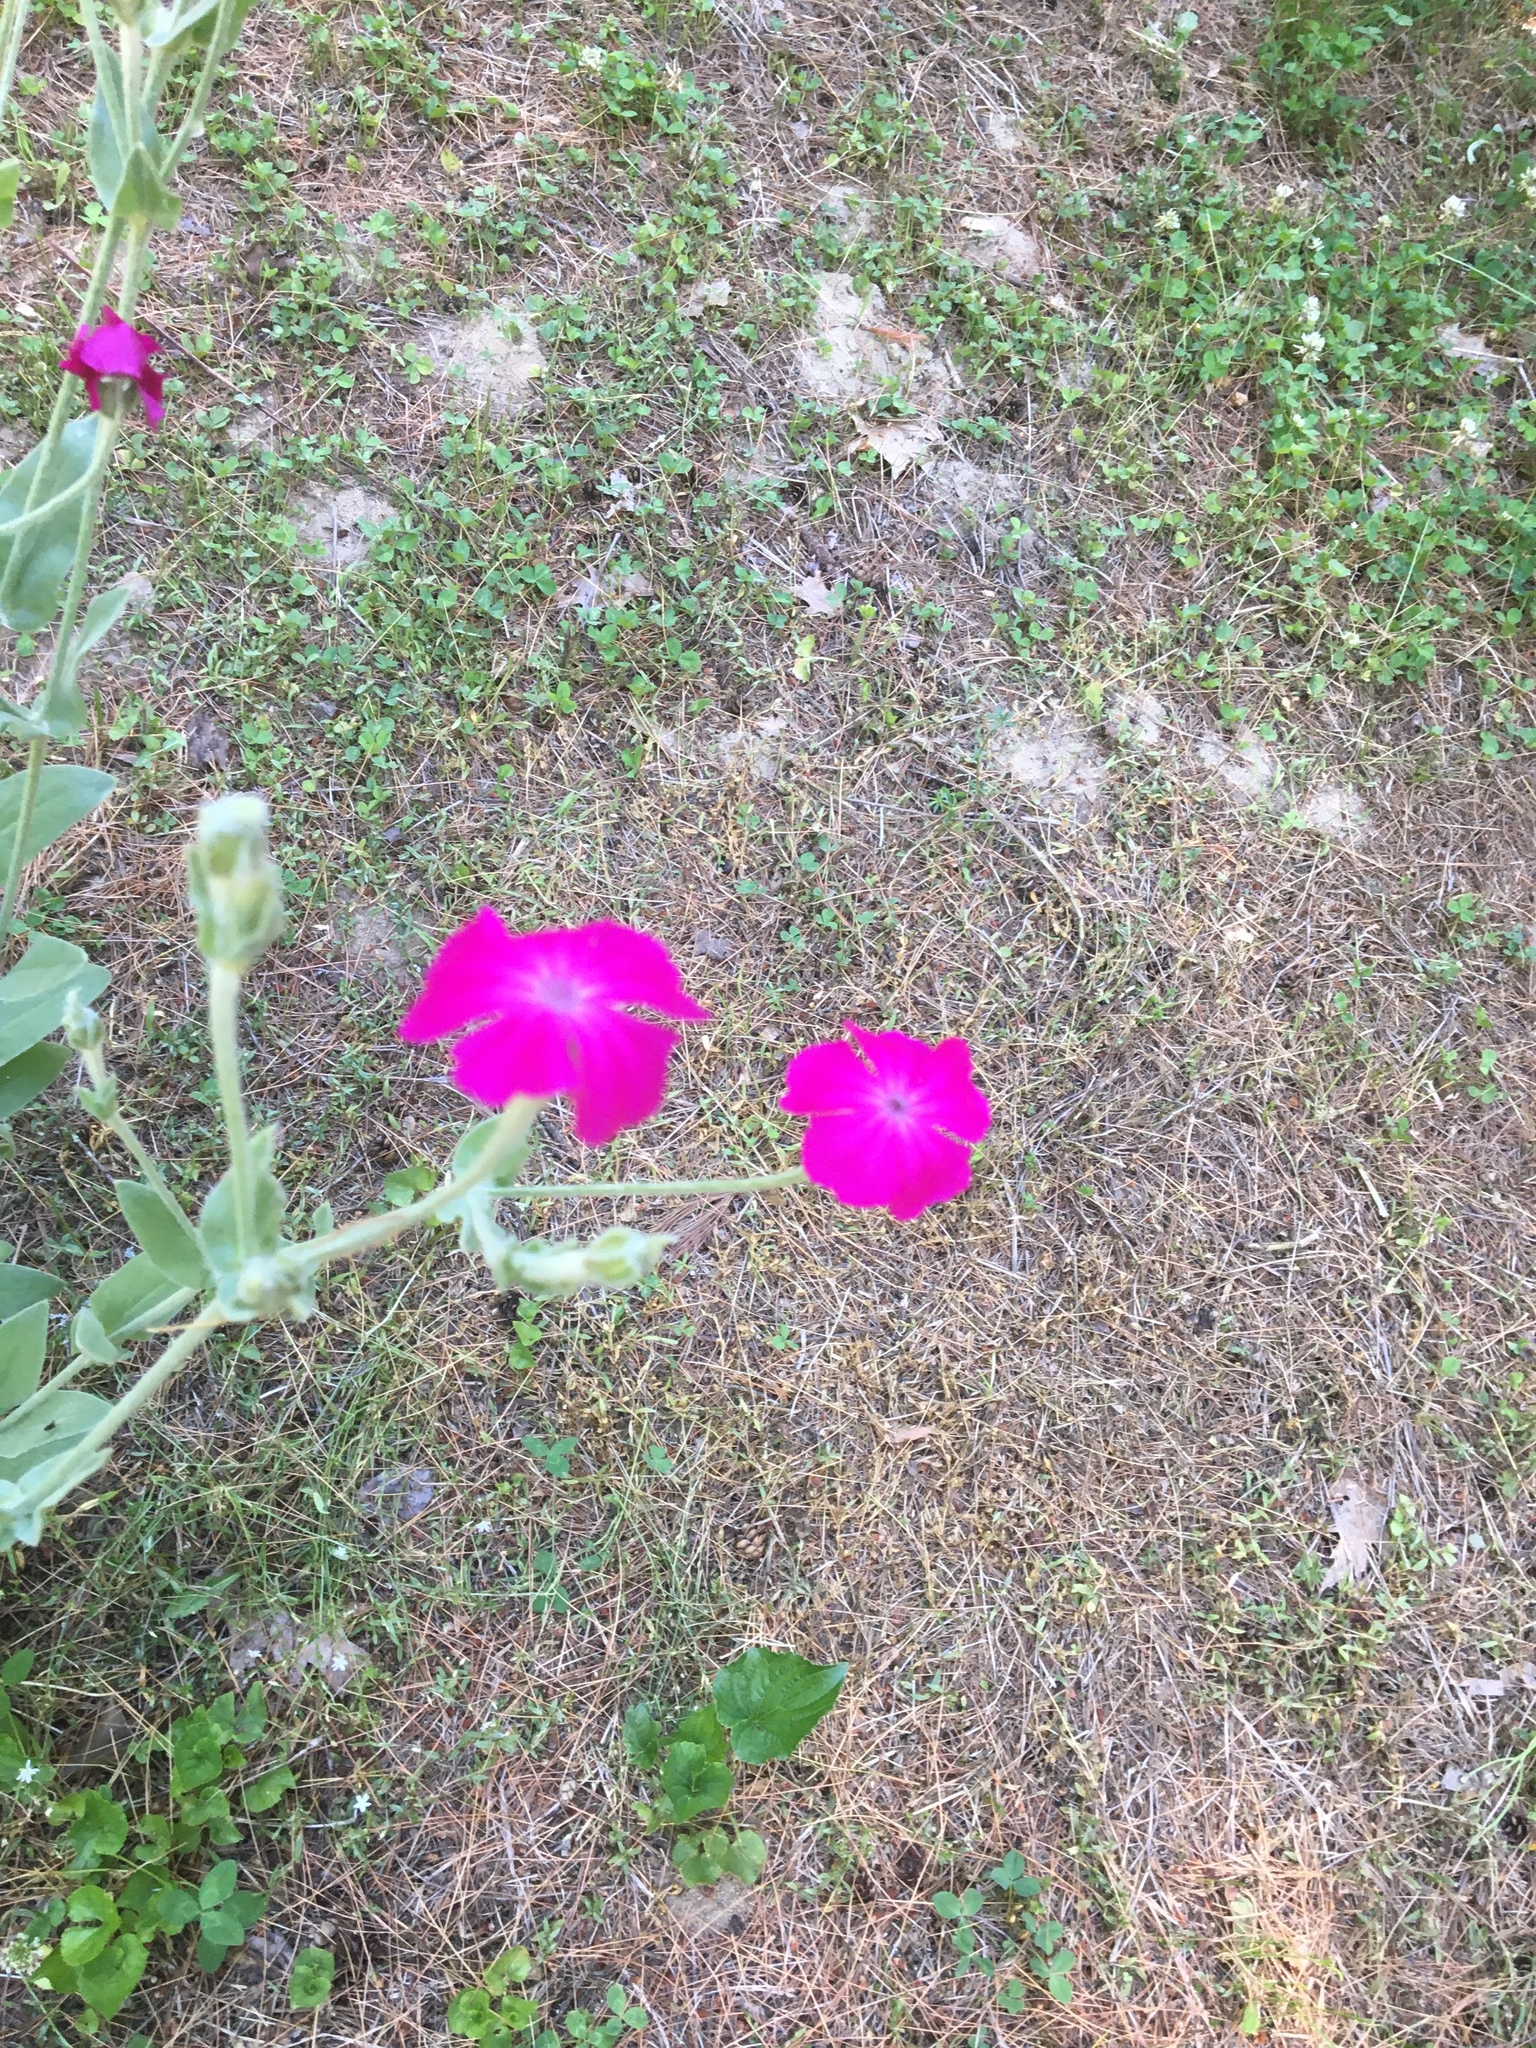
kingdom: Plantae
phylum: Tracheophyta
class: Magnoliopsida
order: Caryophyllales
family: Caryophyllaceae
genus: Silene
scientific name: Silene coronaria
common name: Rose campion
